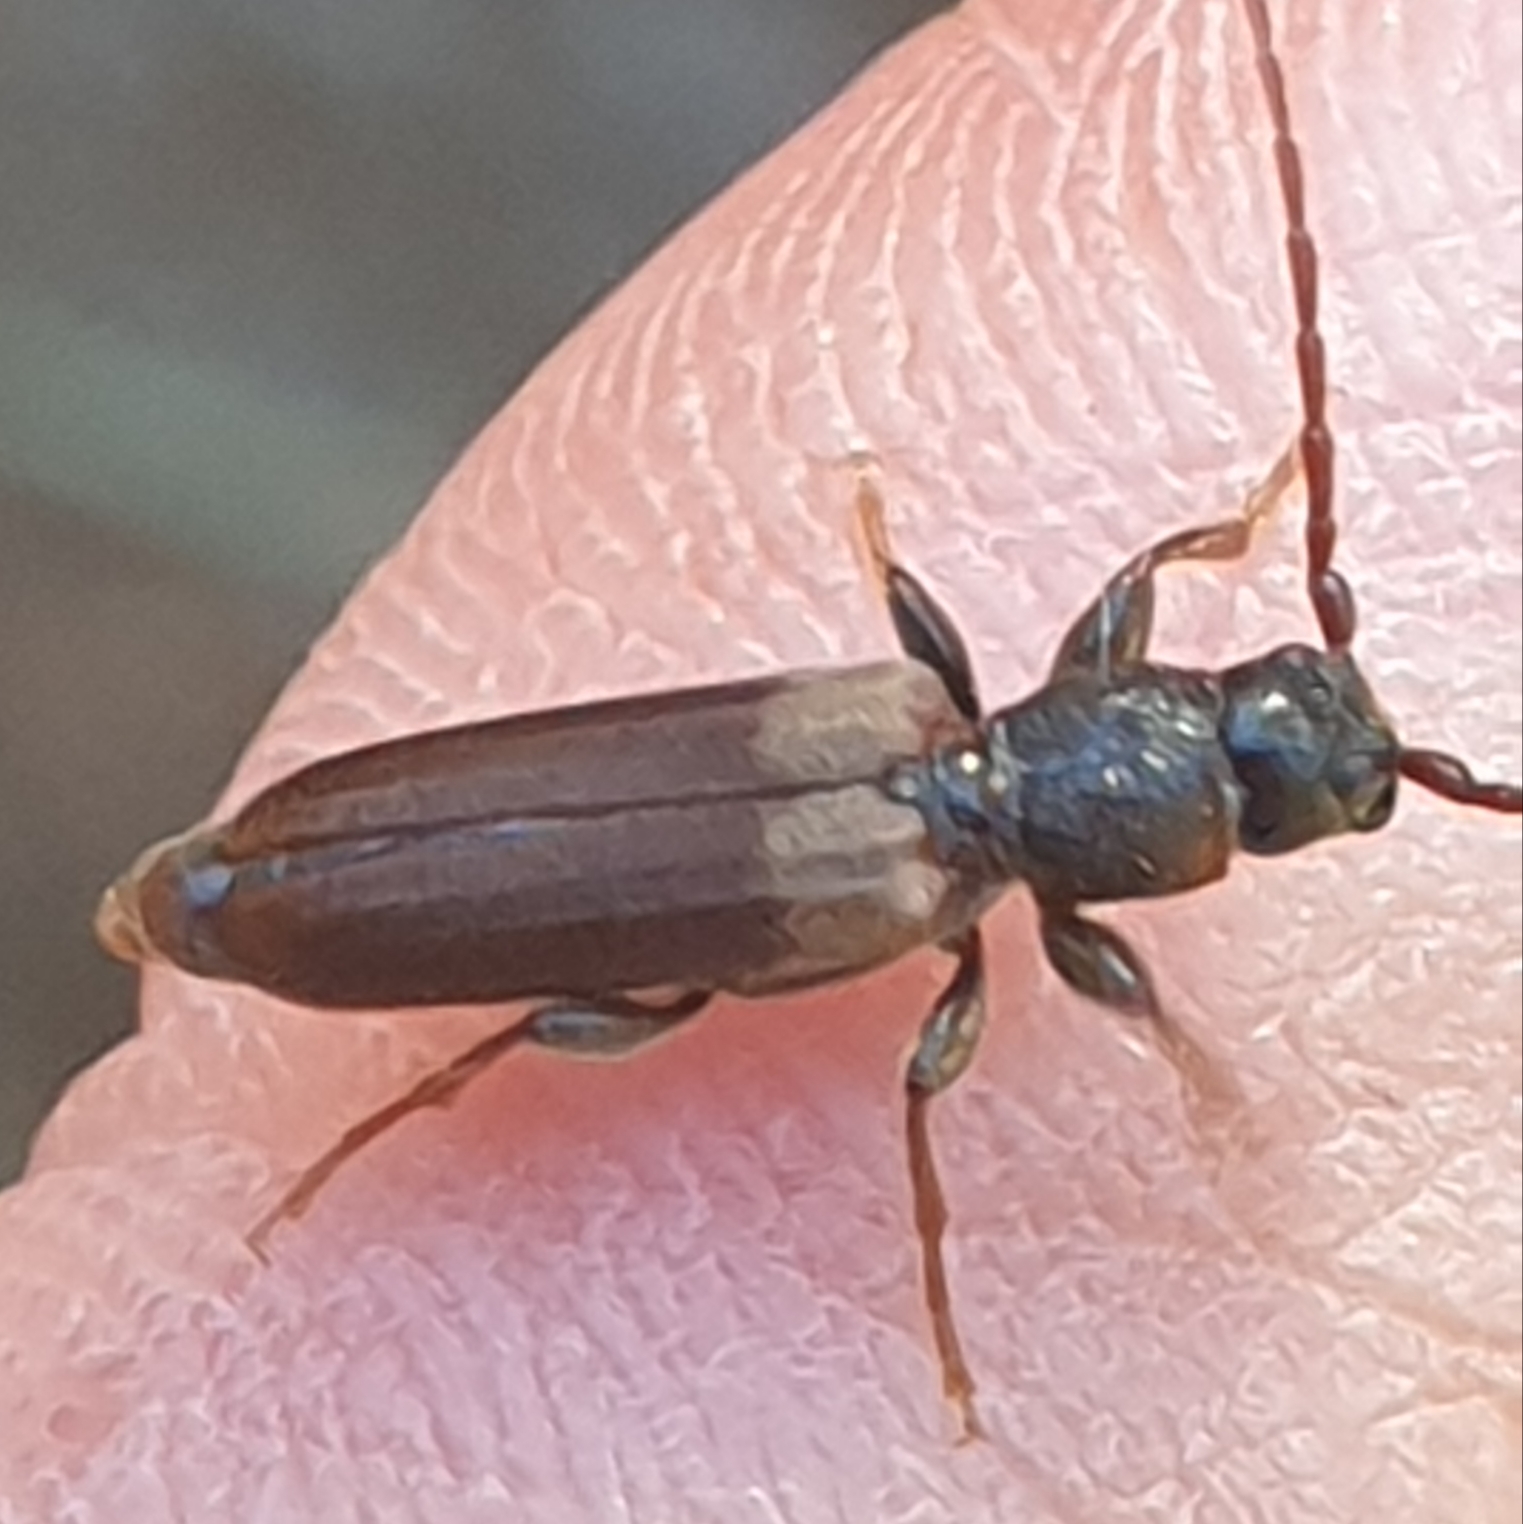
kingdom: Animalia
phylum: Arthropoda
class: Insecta
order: Coleoptera
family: Cerambycidae
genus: Tetropium
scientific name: Tetropium fuscum
